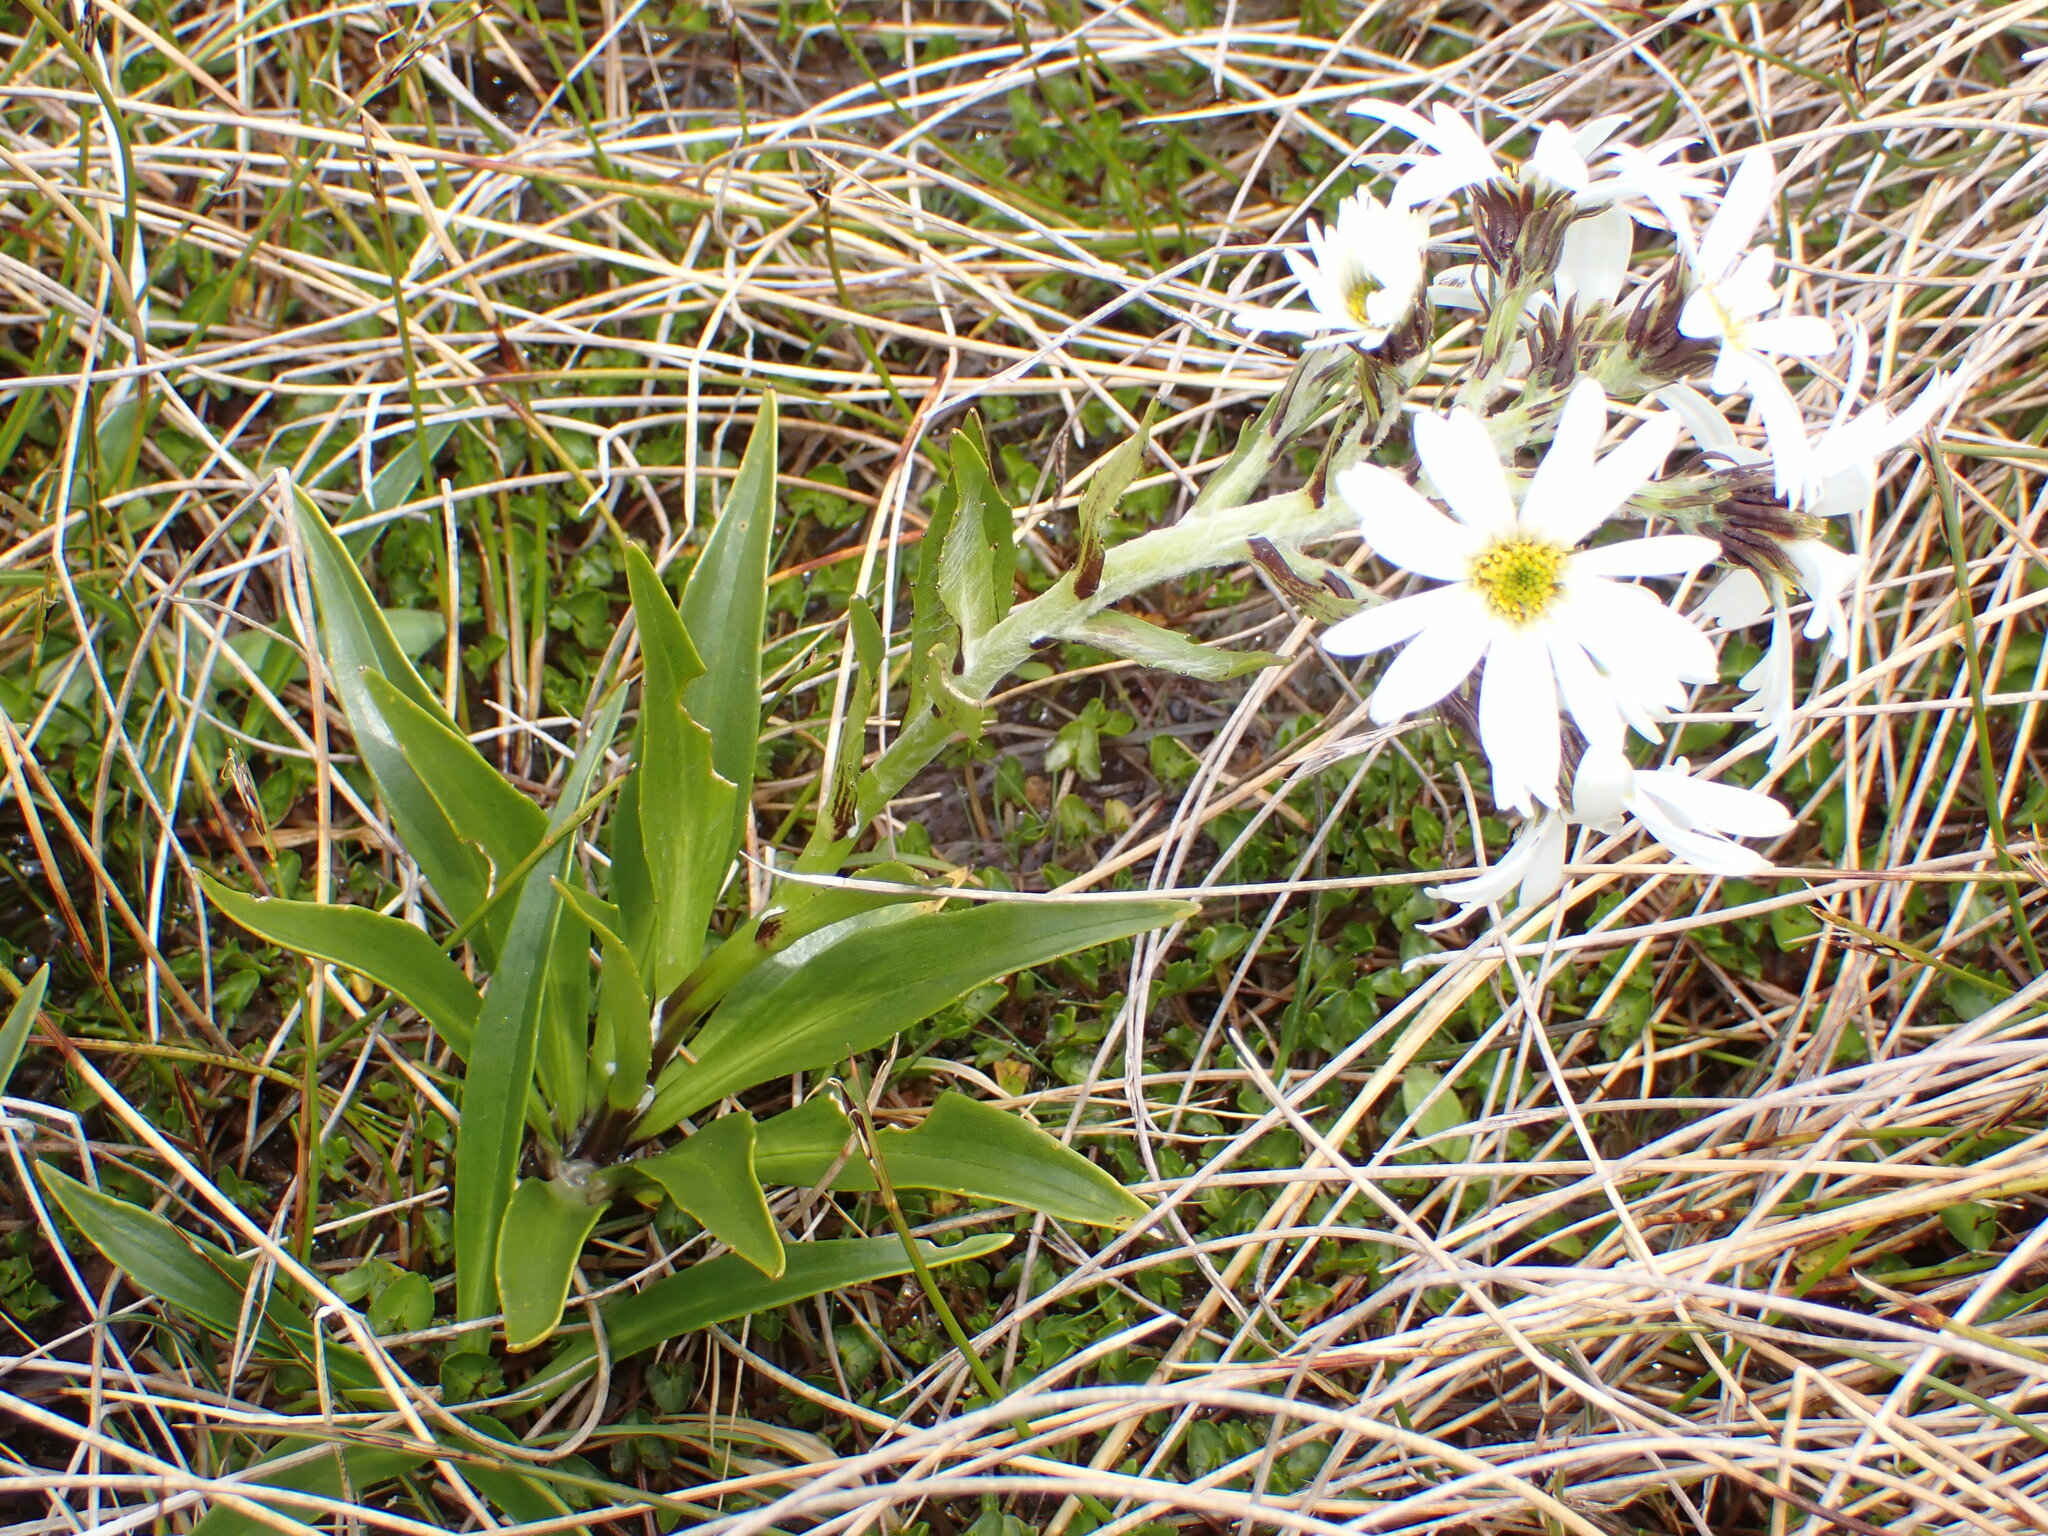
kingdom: Plantae
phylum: Tracheophyta
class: Magnoliopsida
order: Asterales
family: Asteraceae
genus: Dolichoglottis
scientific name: Dolichoglottis scorzoneroides
